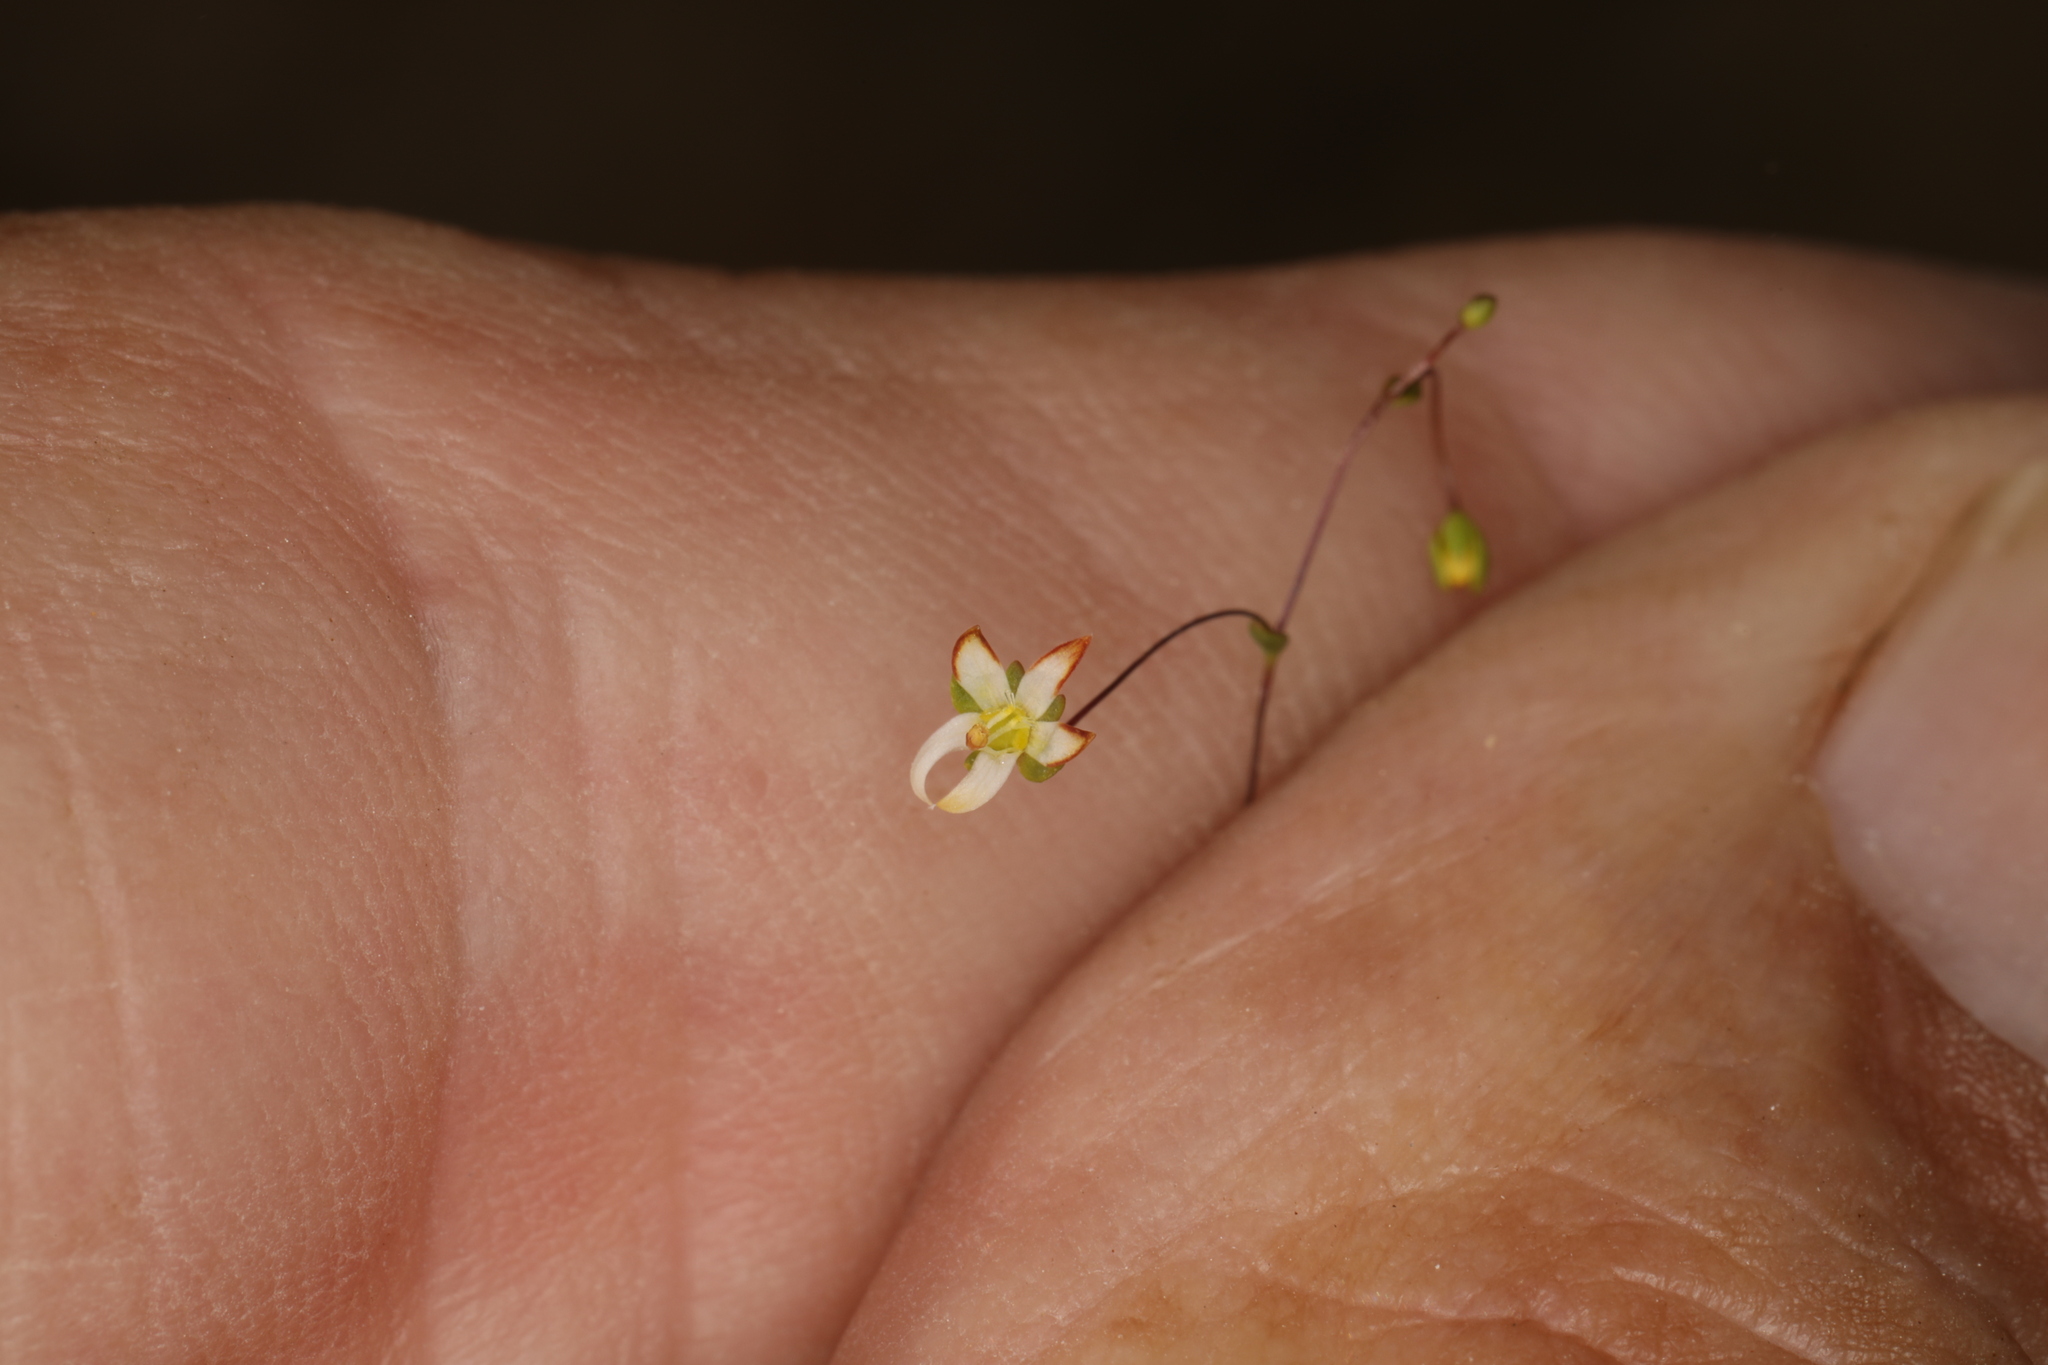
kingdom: Plantae
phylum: Tracheophyta
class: Magnoliopsida
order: Asterales
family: Campanulaceae
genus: Nemacladus
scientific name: Nemacladus morefieldii
